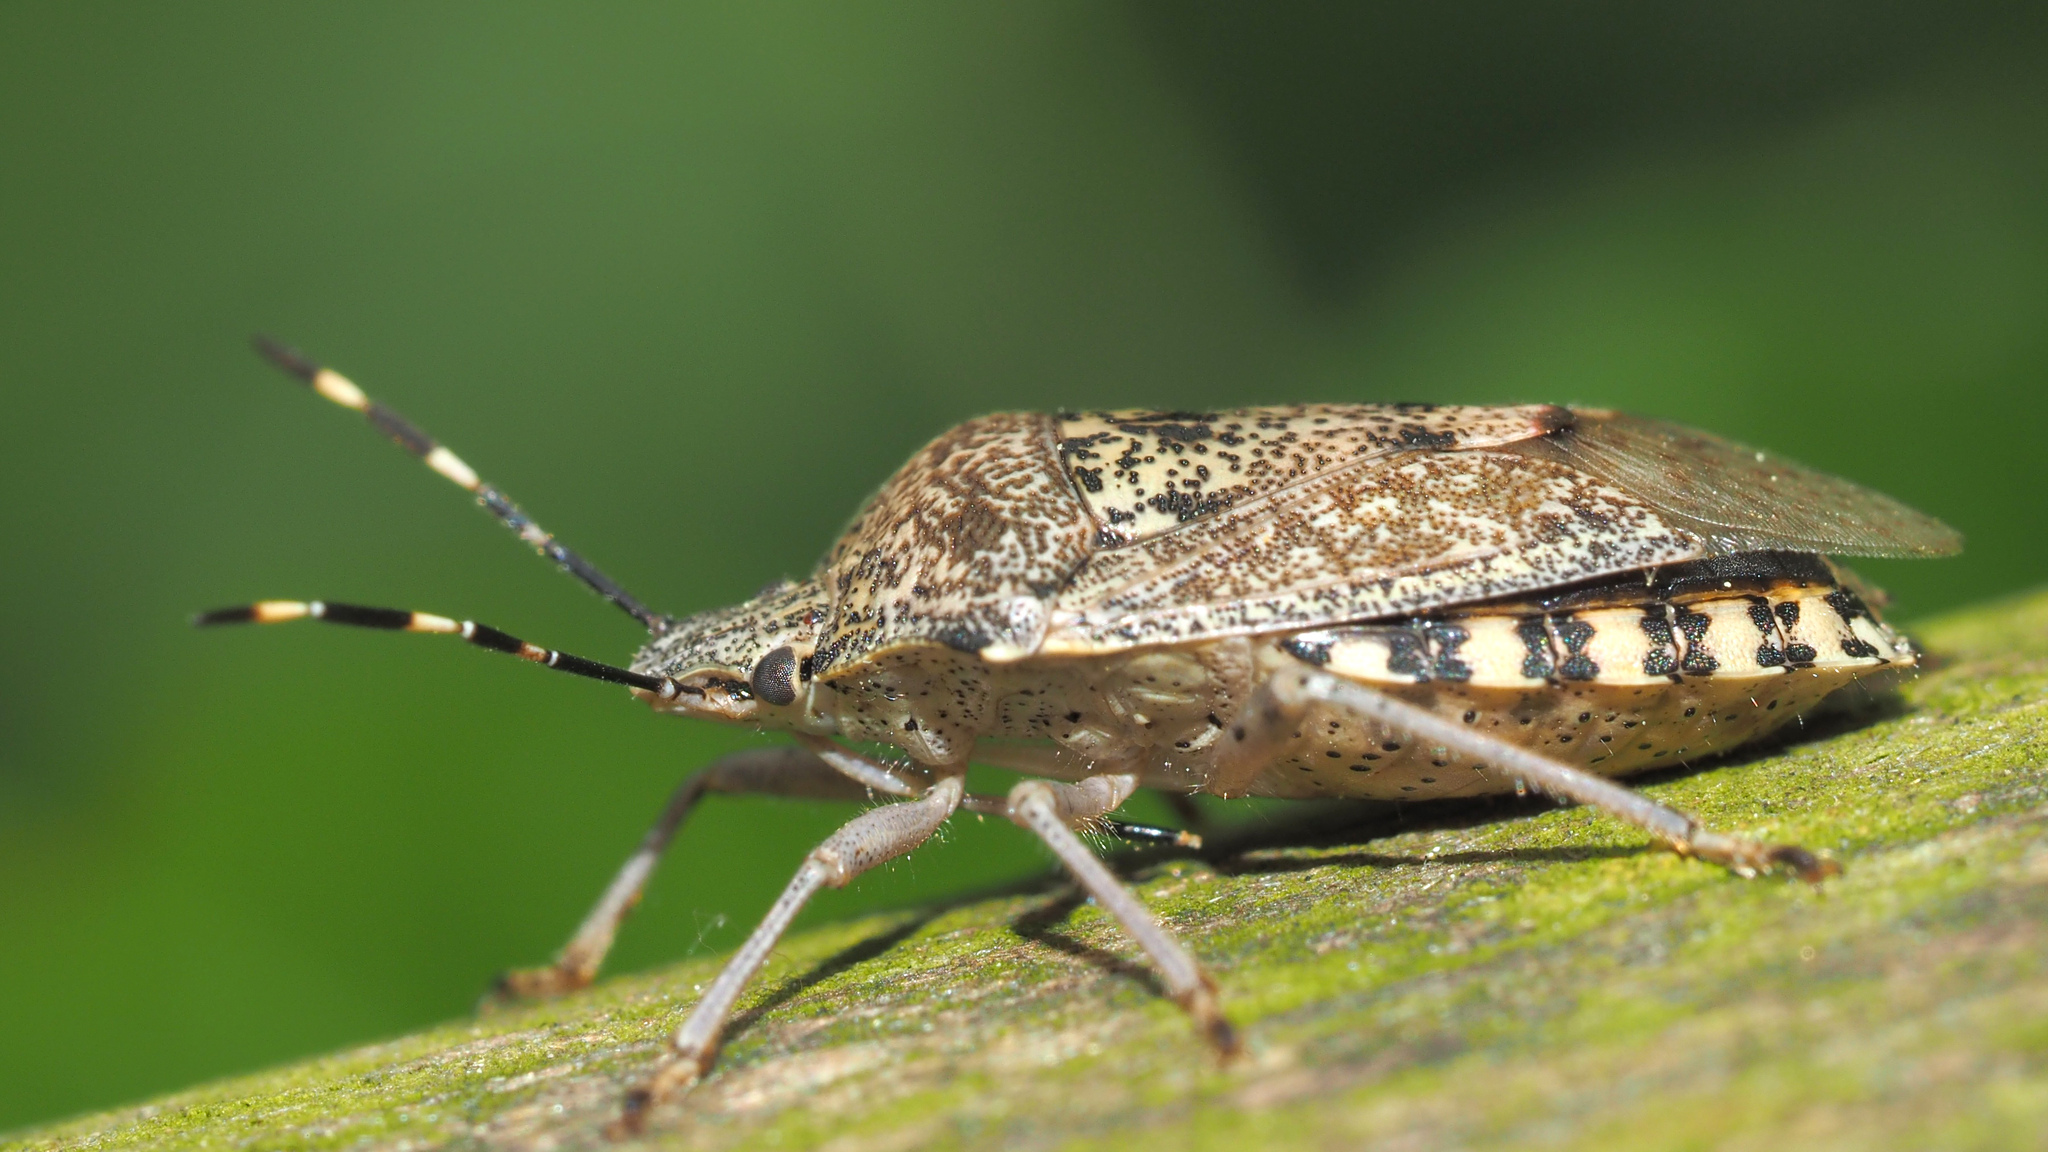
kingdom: Animalia
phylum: Arthropoda
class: Insecta
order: Hemiptera
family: Pentatomidae
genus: Rhaphigaster
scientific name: Rhaphigaster nebulosa
